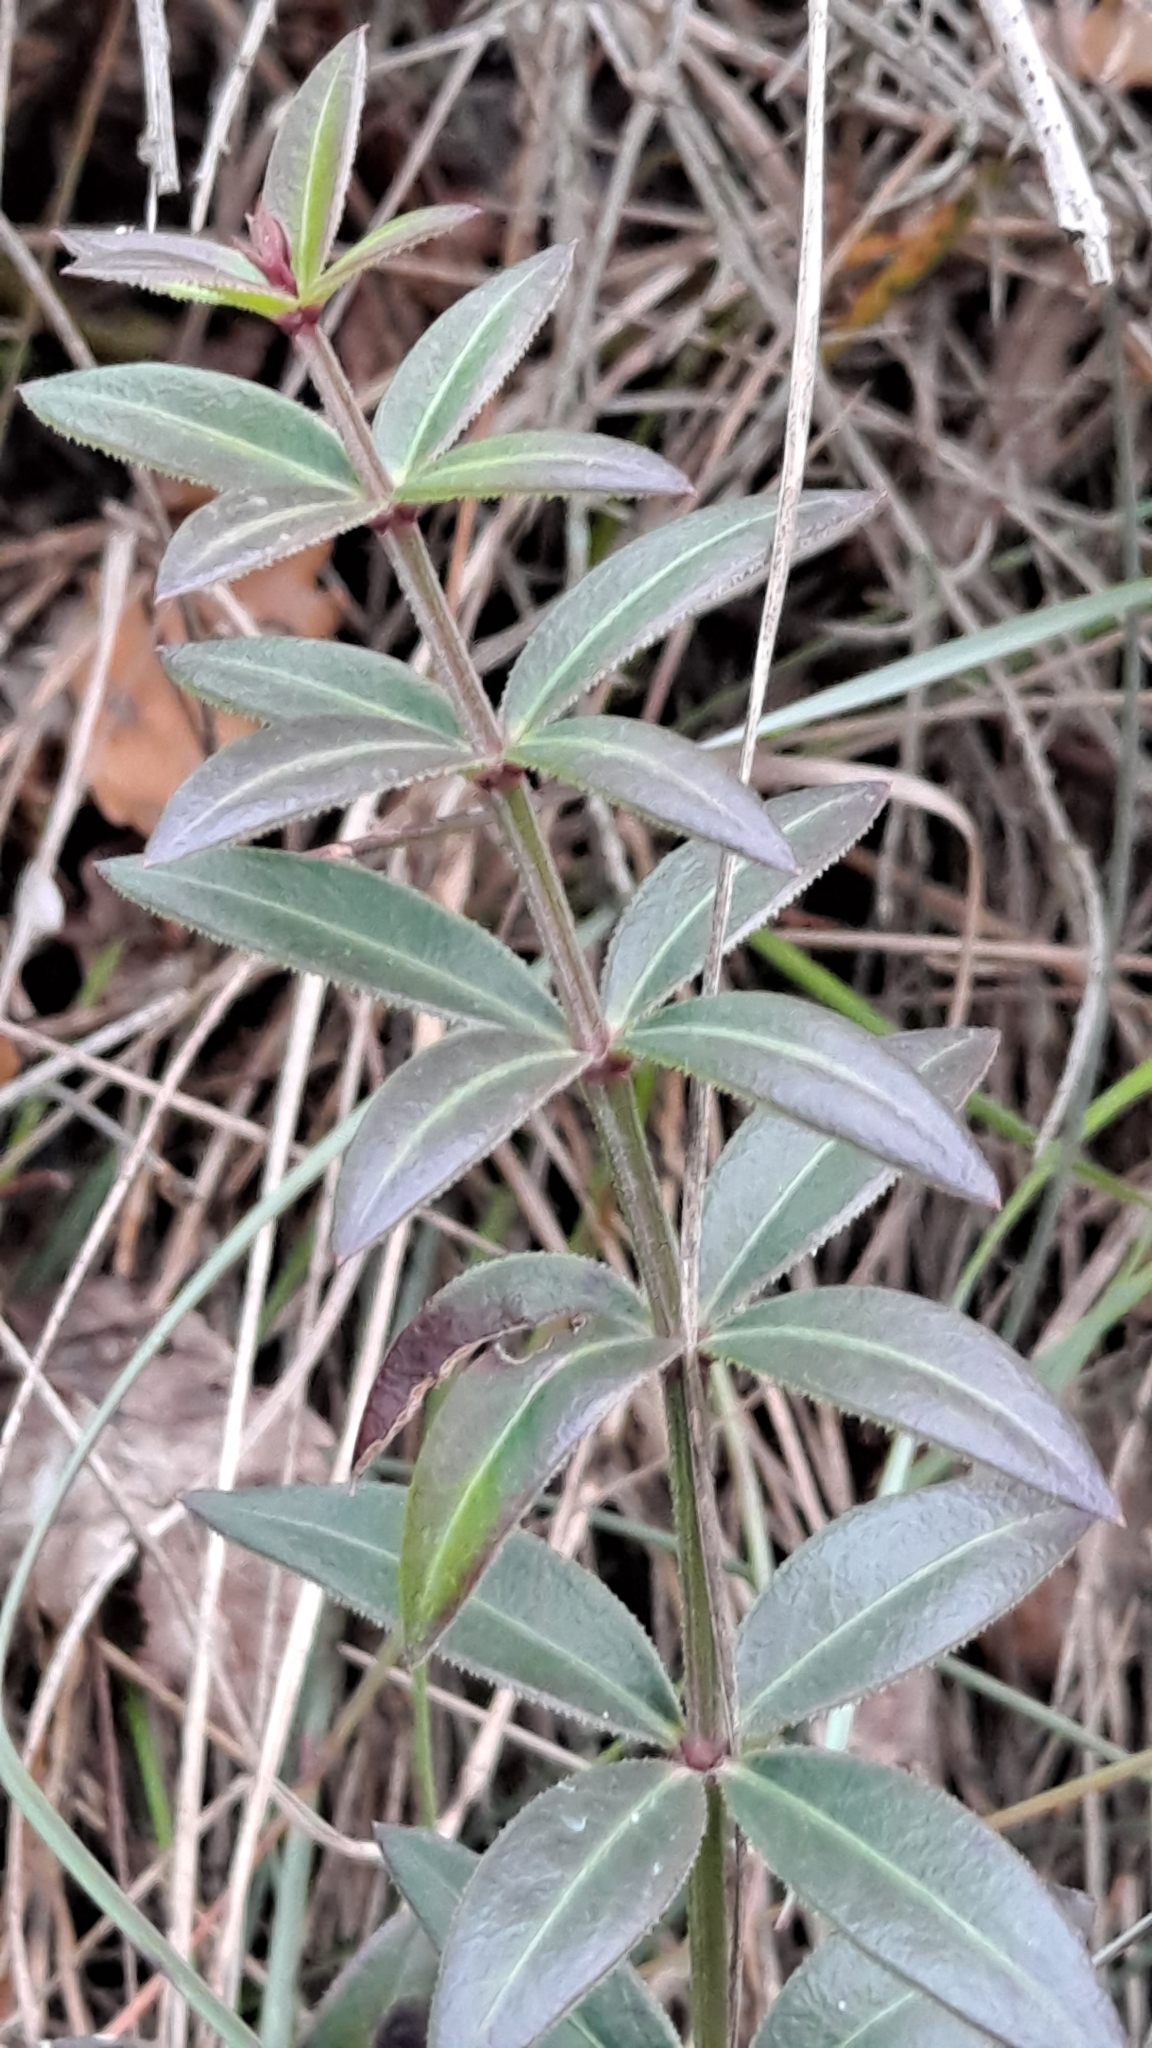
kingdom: Plantae
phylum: Tracheophyta
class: Magnoliopsida
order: Gentianales
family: Rubiaceae
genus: Rubia
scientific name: Rubia peregrina
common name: Wild madder
